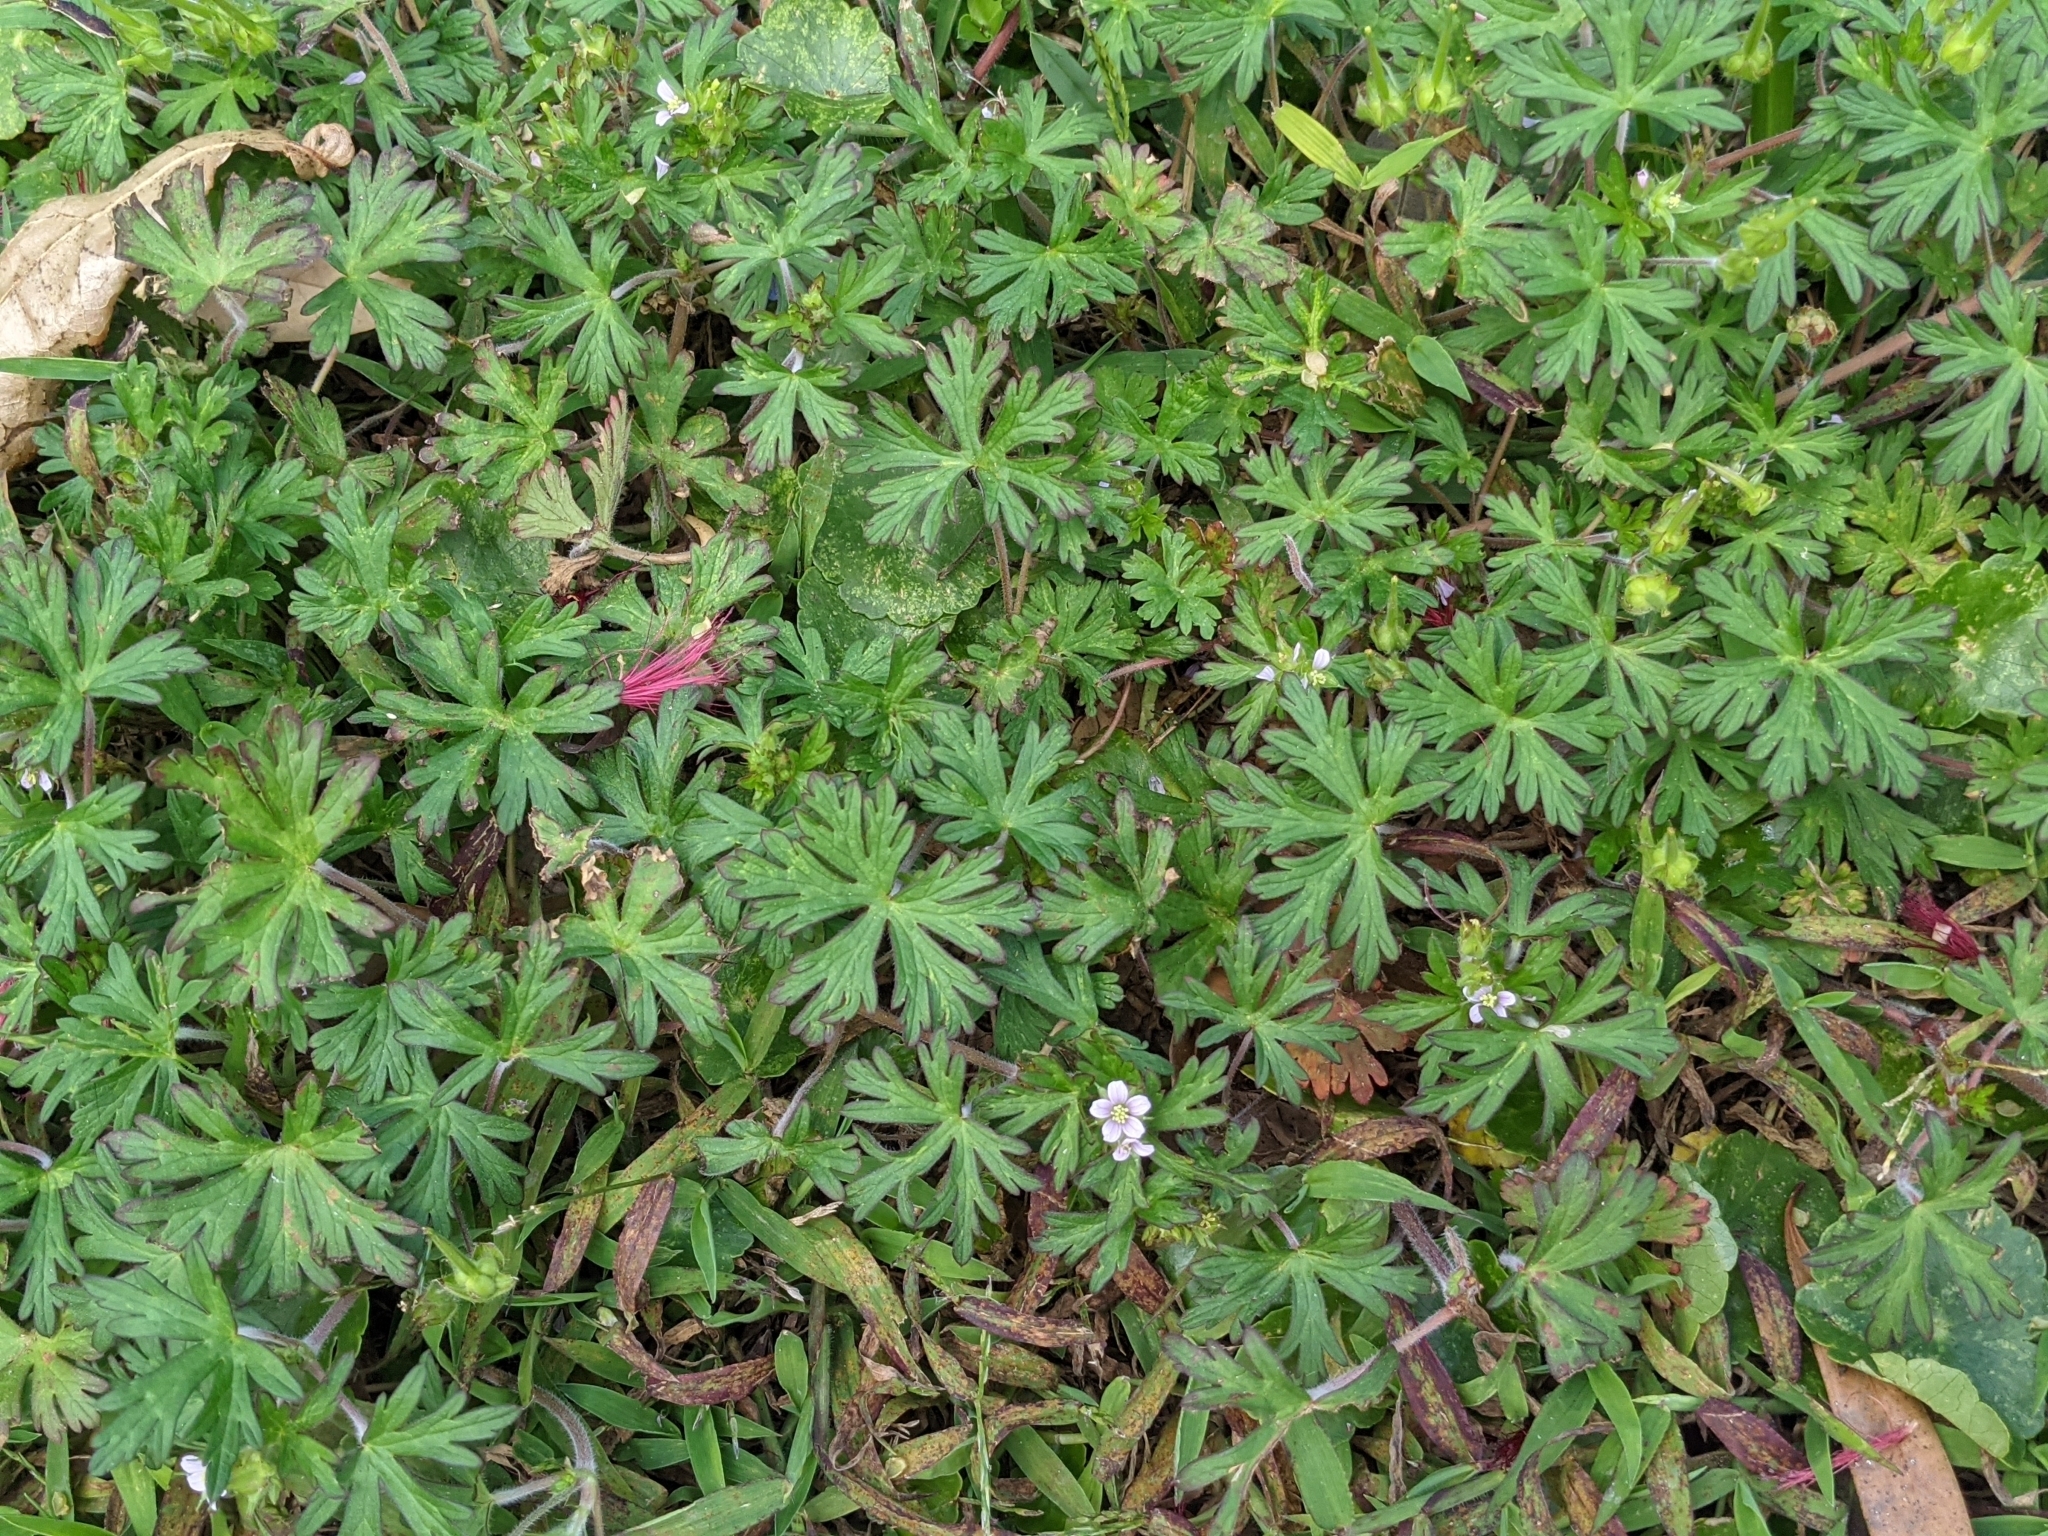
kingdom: Plantae
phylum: Tracheophyta
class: Magnoliopsida
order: Geraniales
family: Geraniaceae
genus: Geranium
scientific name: Geranium carolinianum
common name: Carolina crane's-bill
